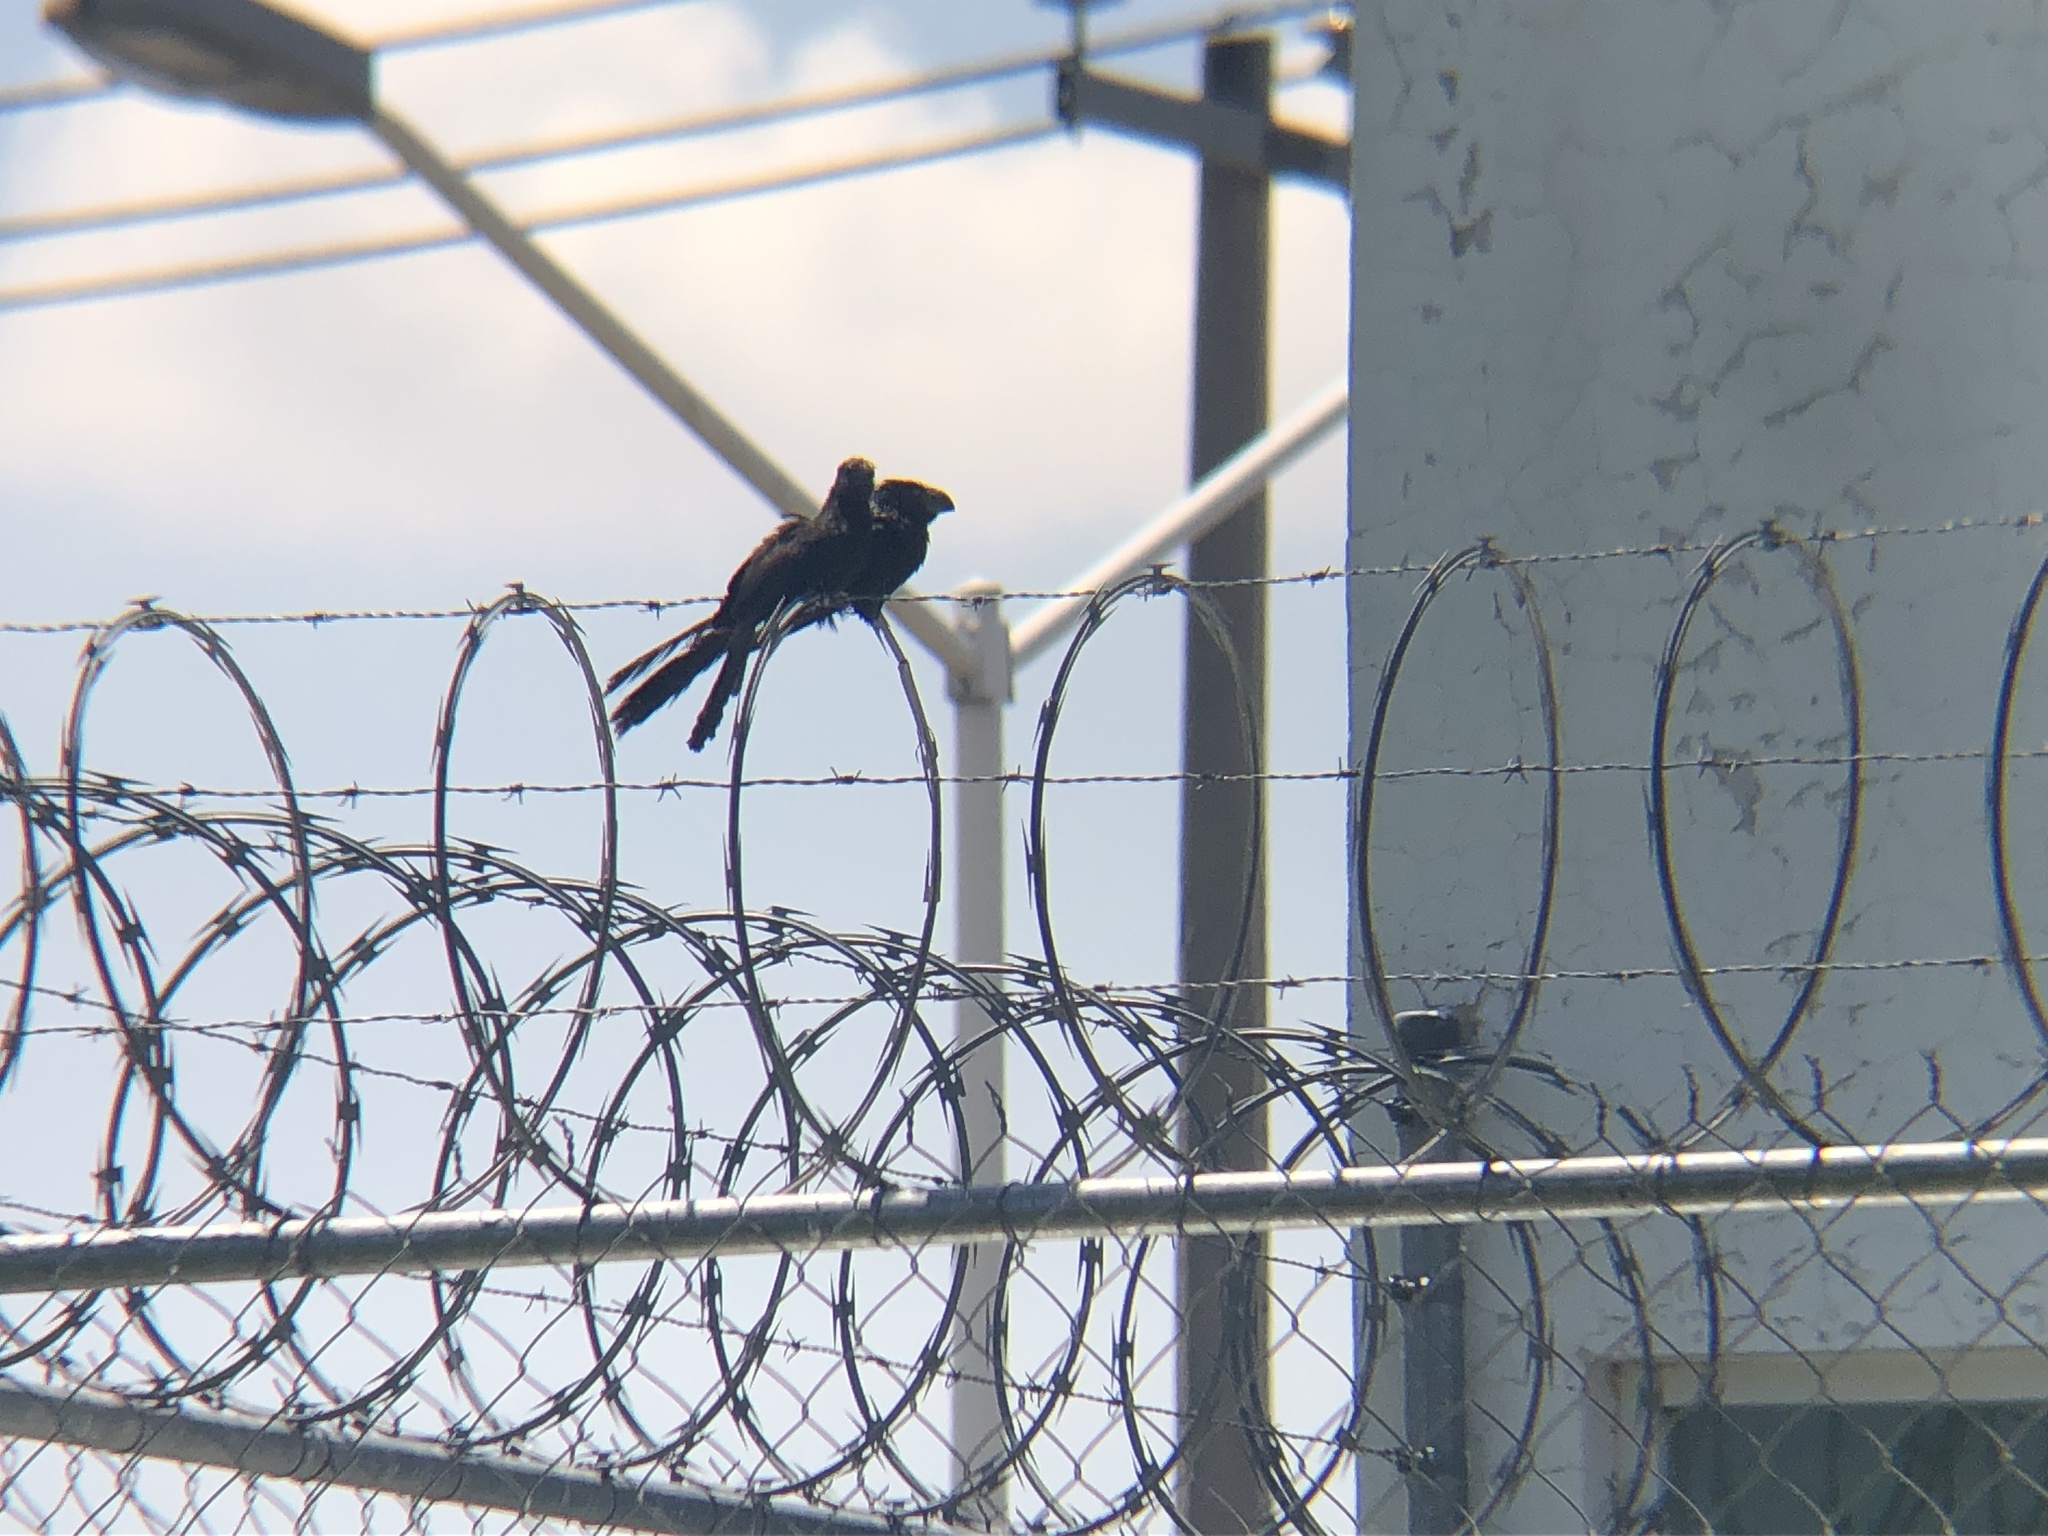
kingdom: Animalia
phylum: Chordata
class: Aves
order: Cuculiformes
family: Cuculidae
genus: Crotophaga
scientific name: Crotophaga sulcirostris
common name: Groove-billed ani
